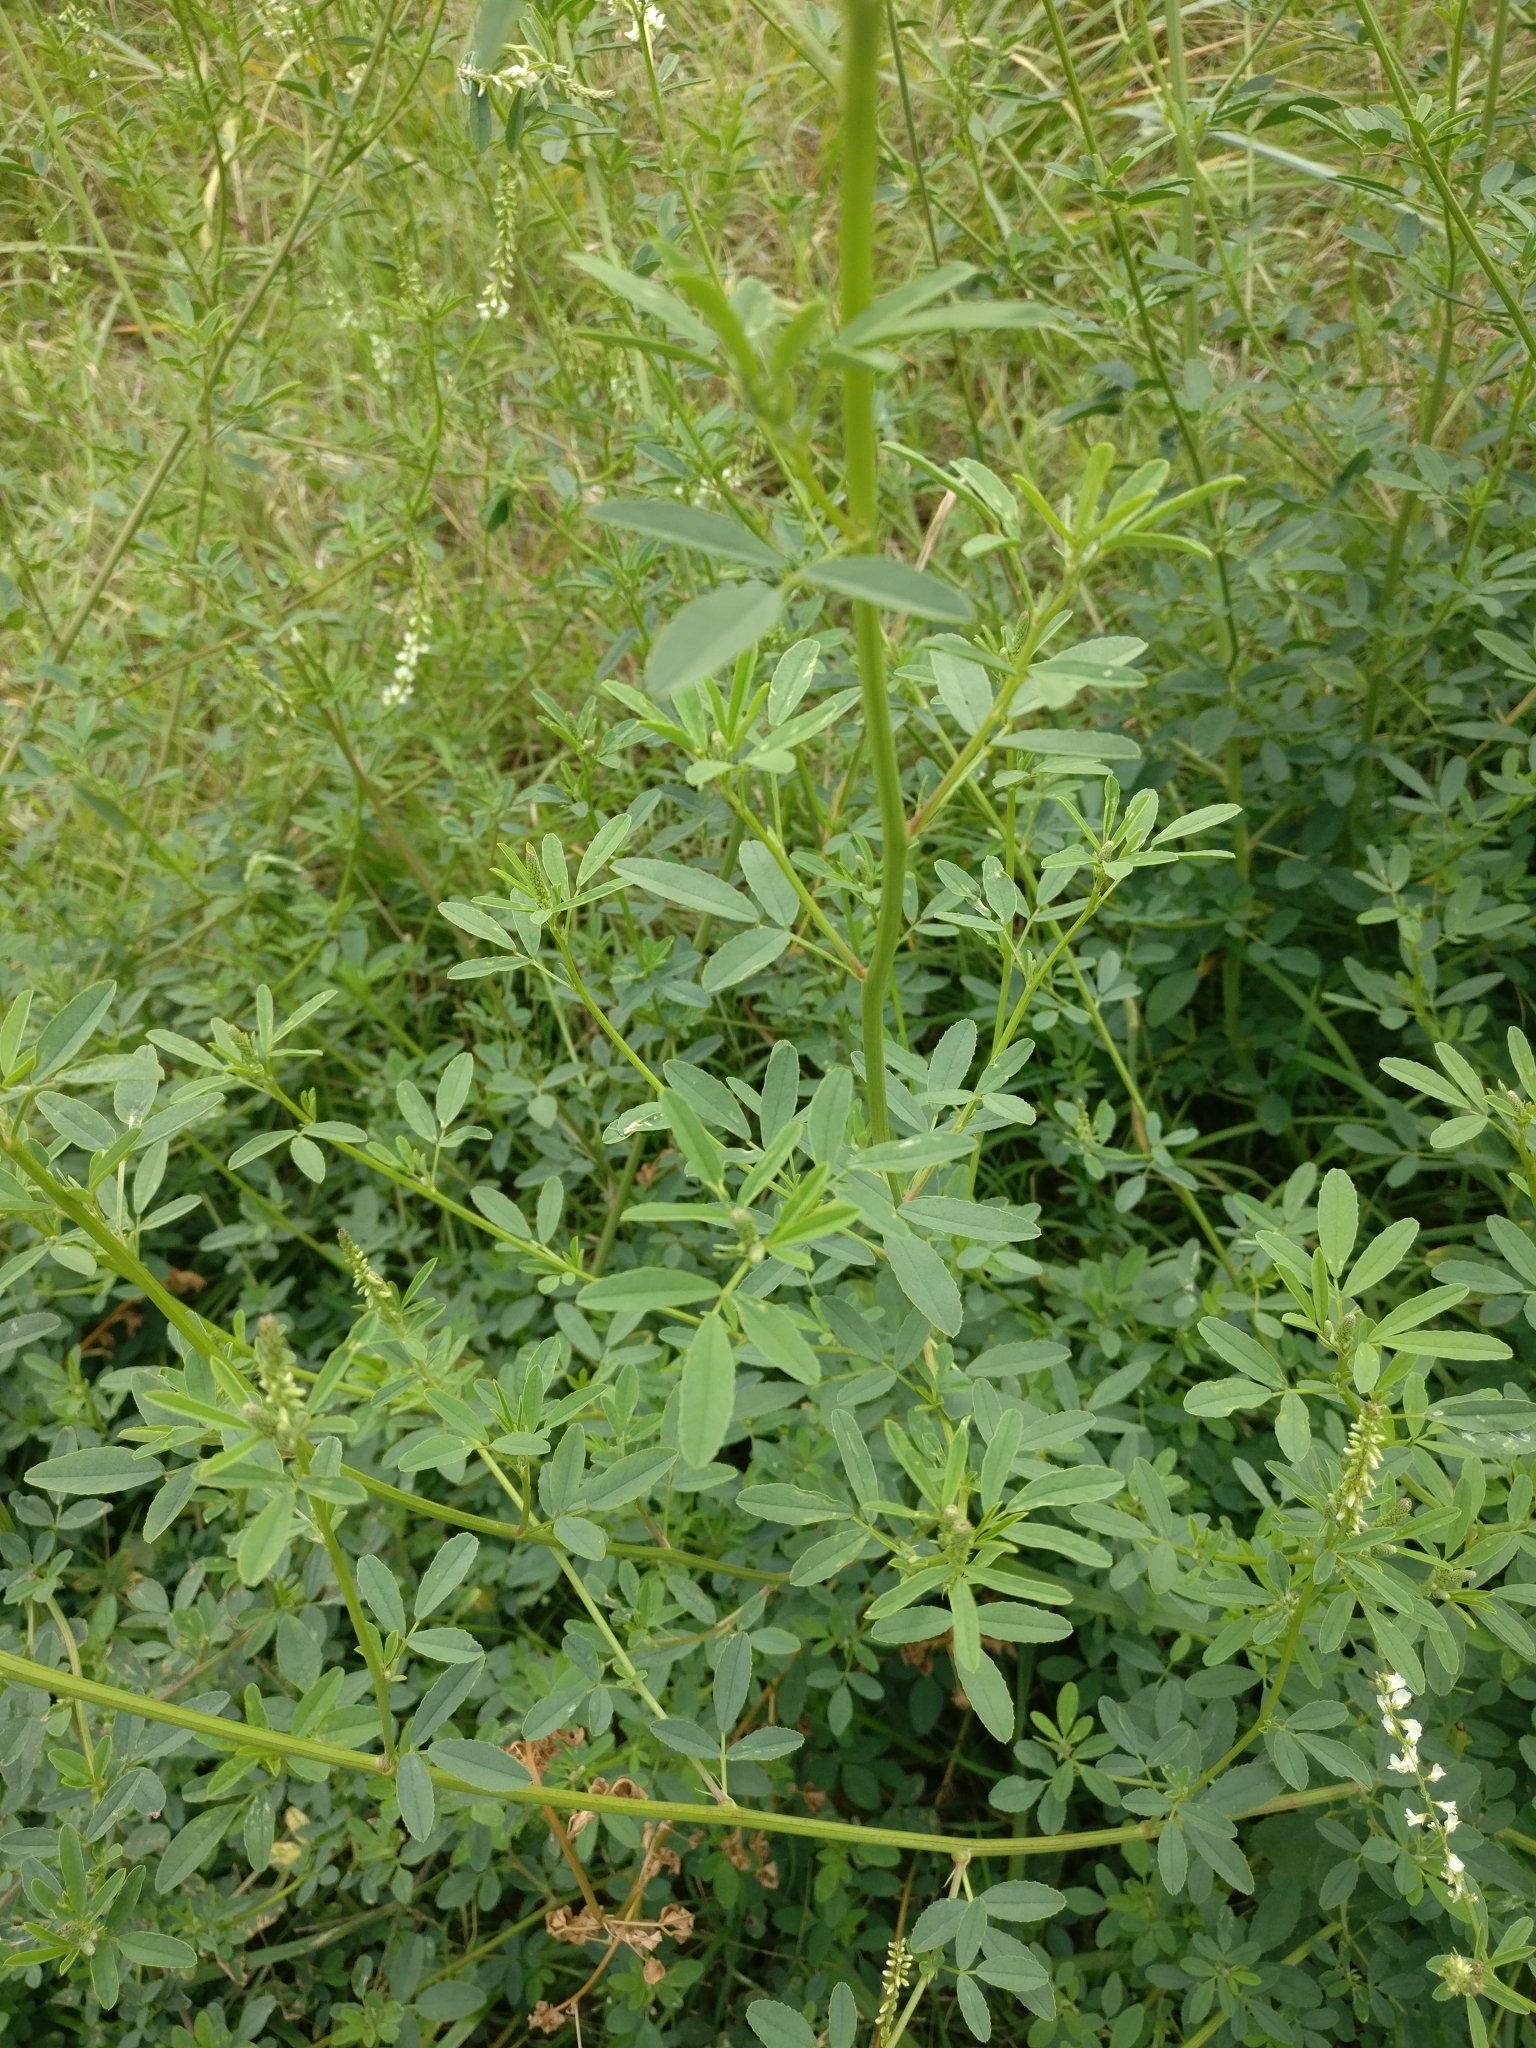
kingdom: Plantae
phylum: Tracheophyta
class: Magnoliopsida
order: Fabales
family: Fabaceae
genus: Melilotus
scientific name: Melilotus albus
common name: White melilot
